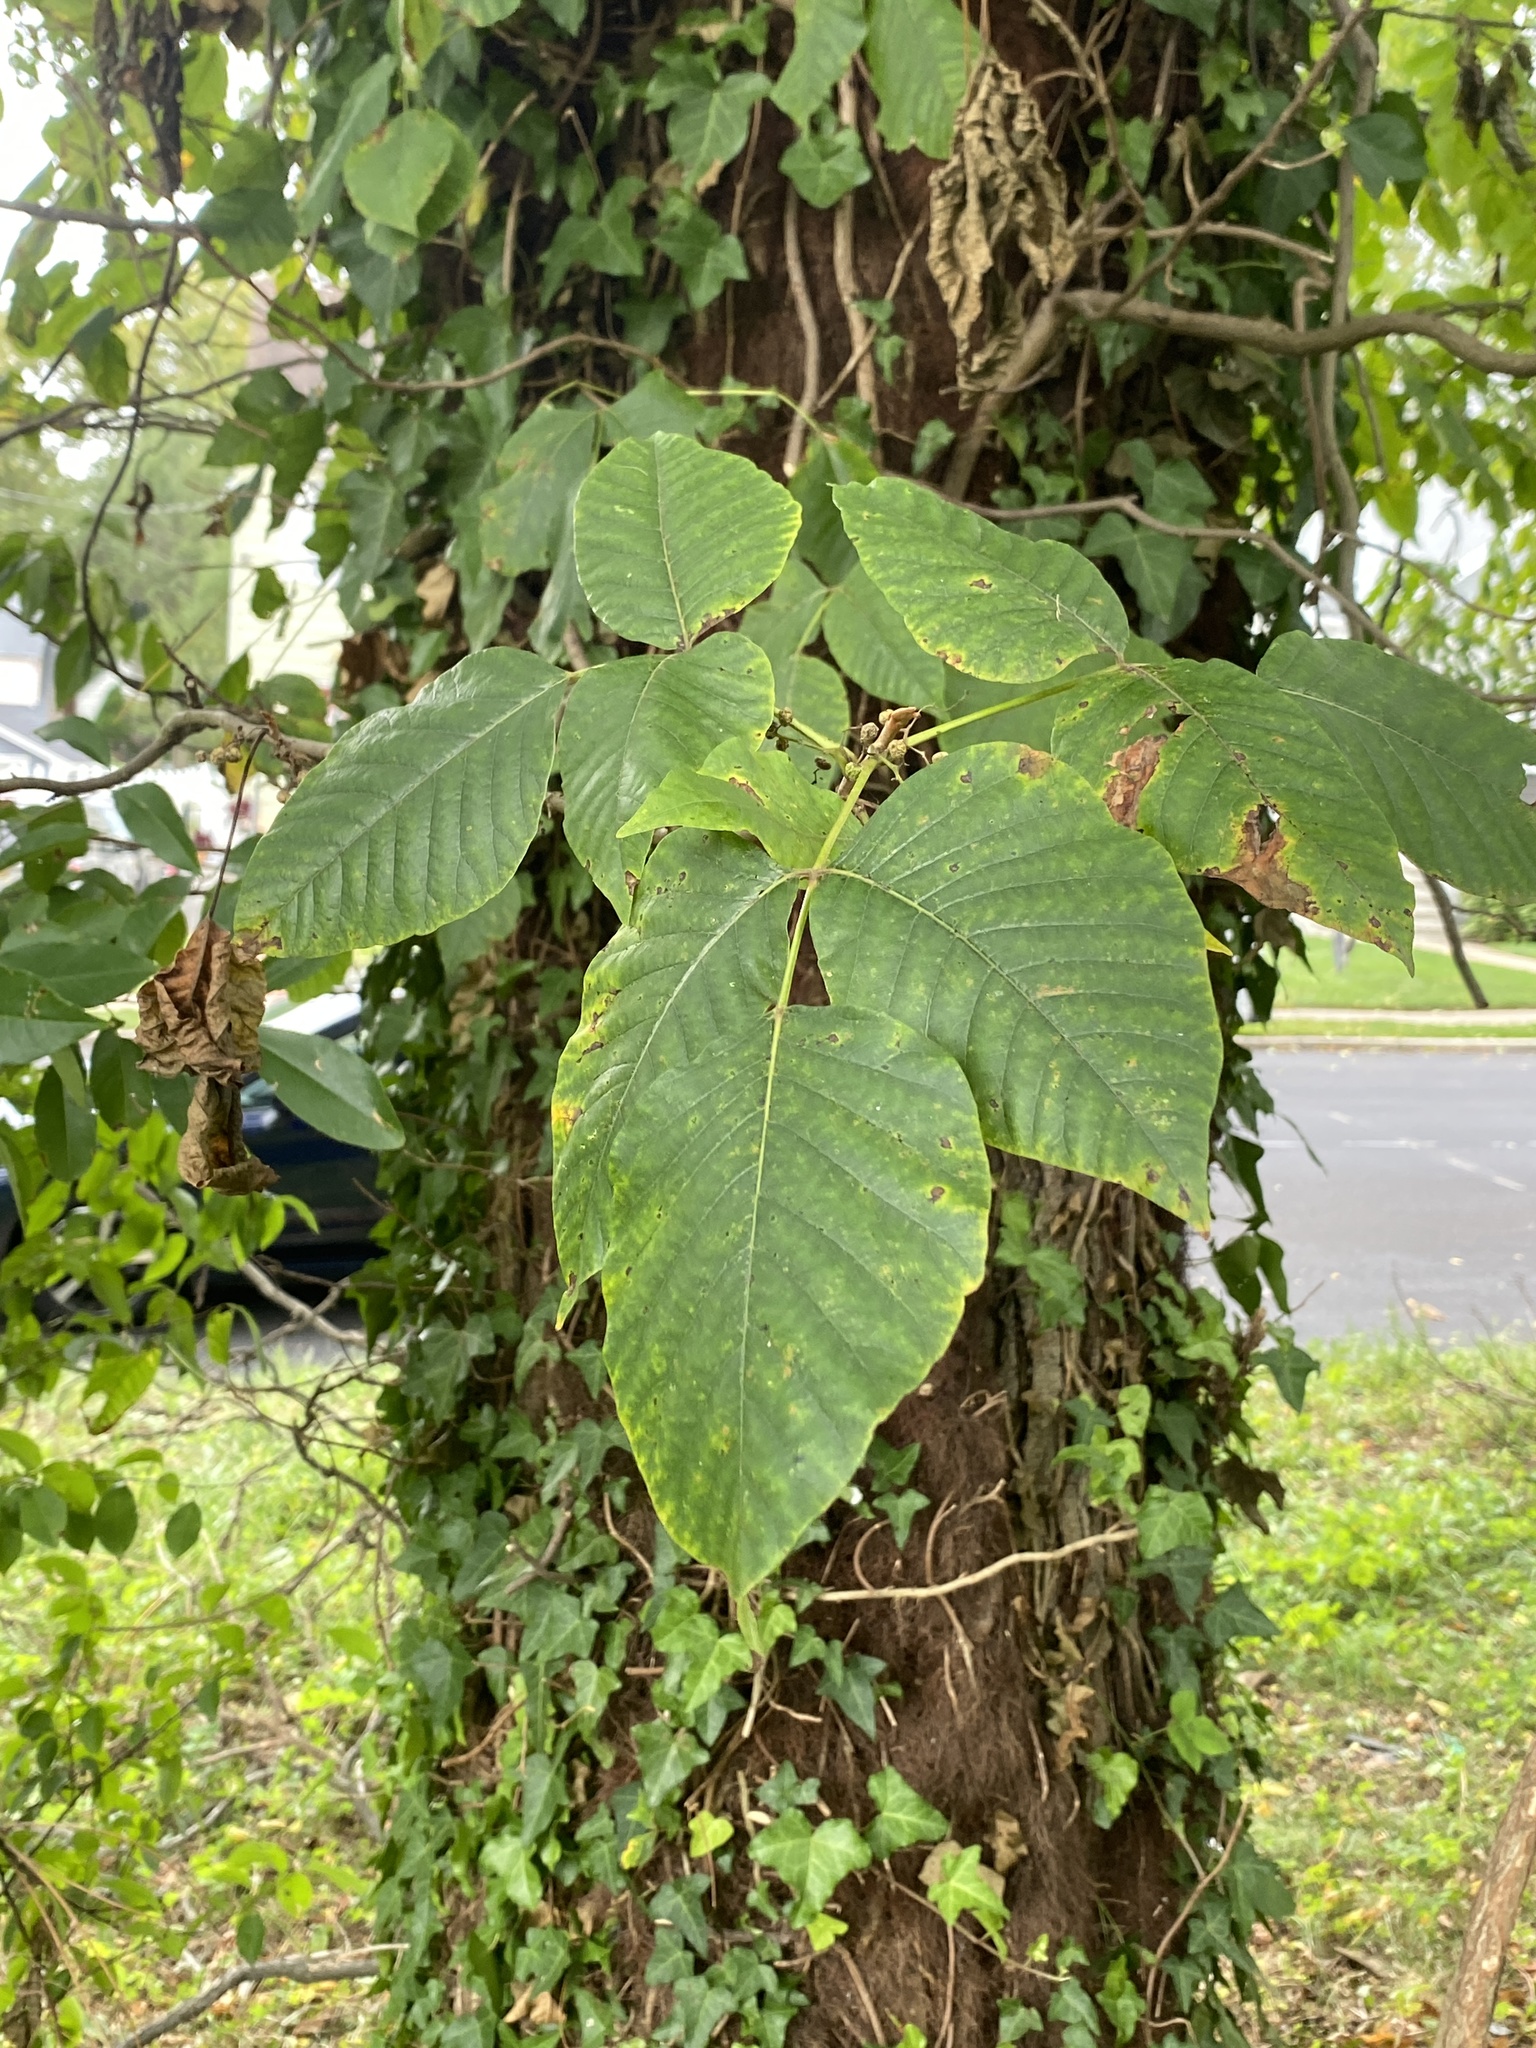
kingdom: Plantae
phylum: Tracheophyta
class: Magnoliopsida
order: Sapindales
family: Anacardiaceae
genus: Toxicodendron
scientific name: Toxicodendron radicans
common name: Poison ivy
